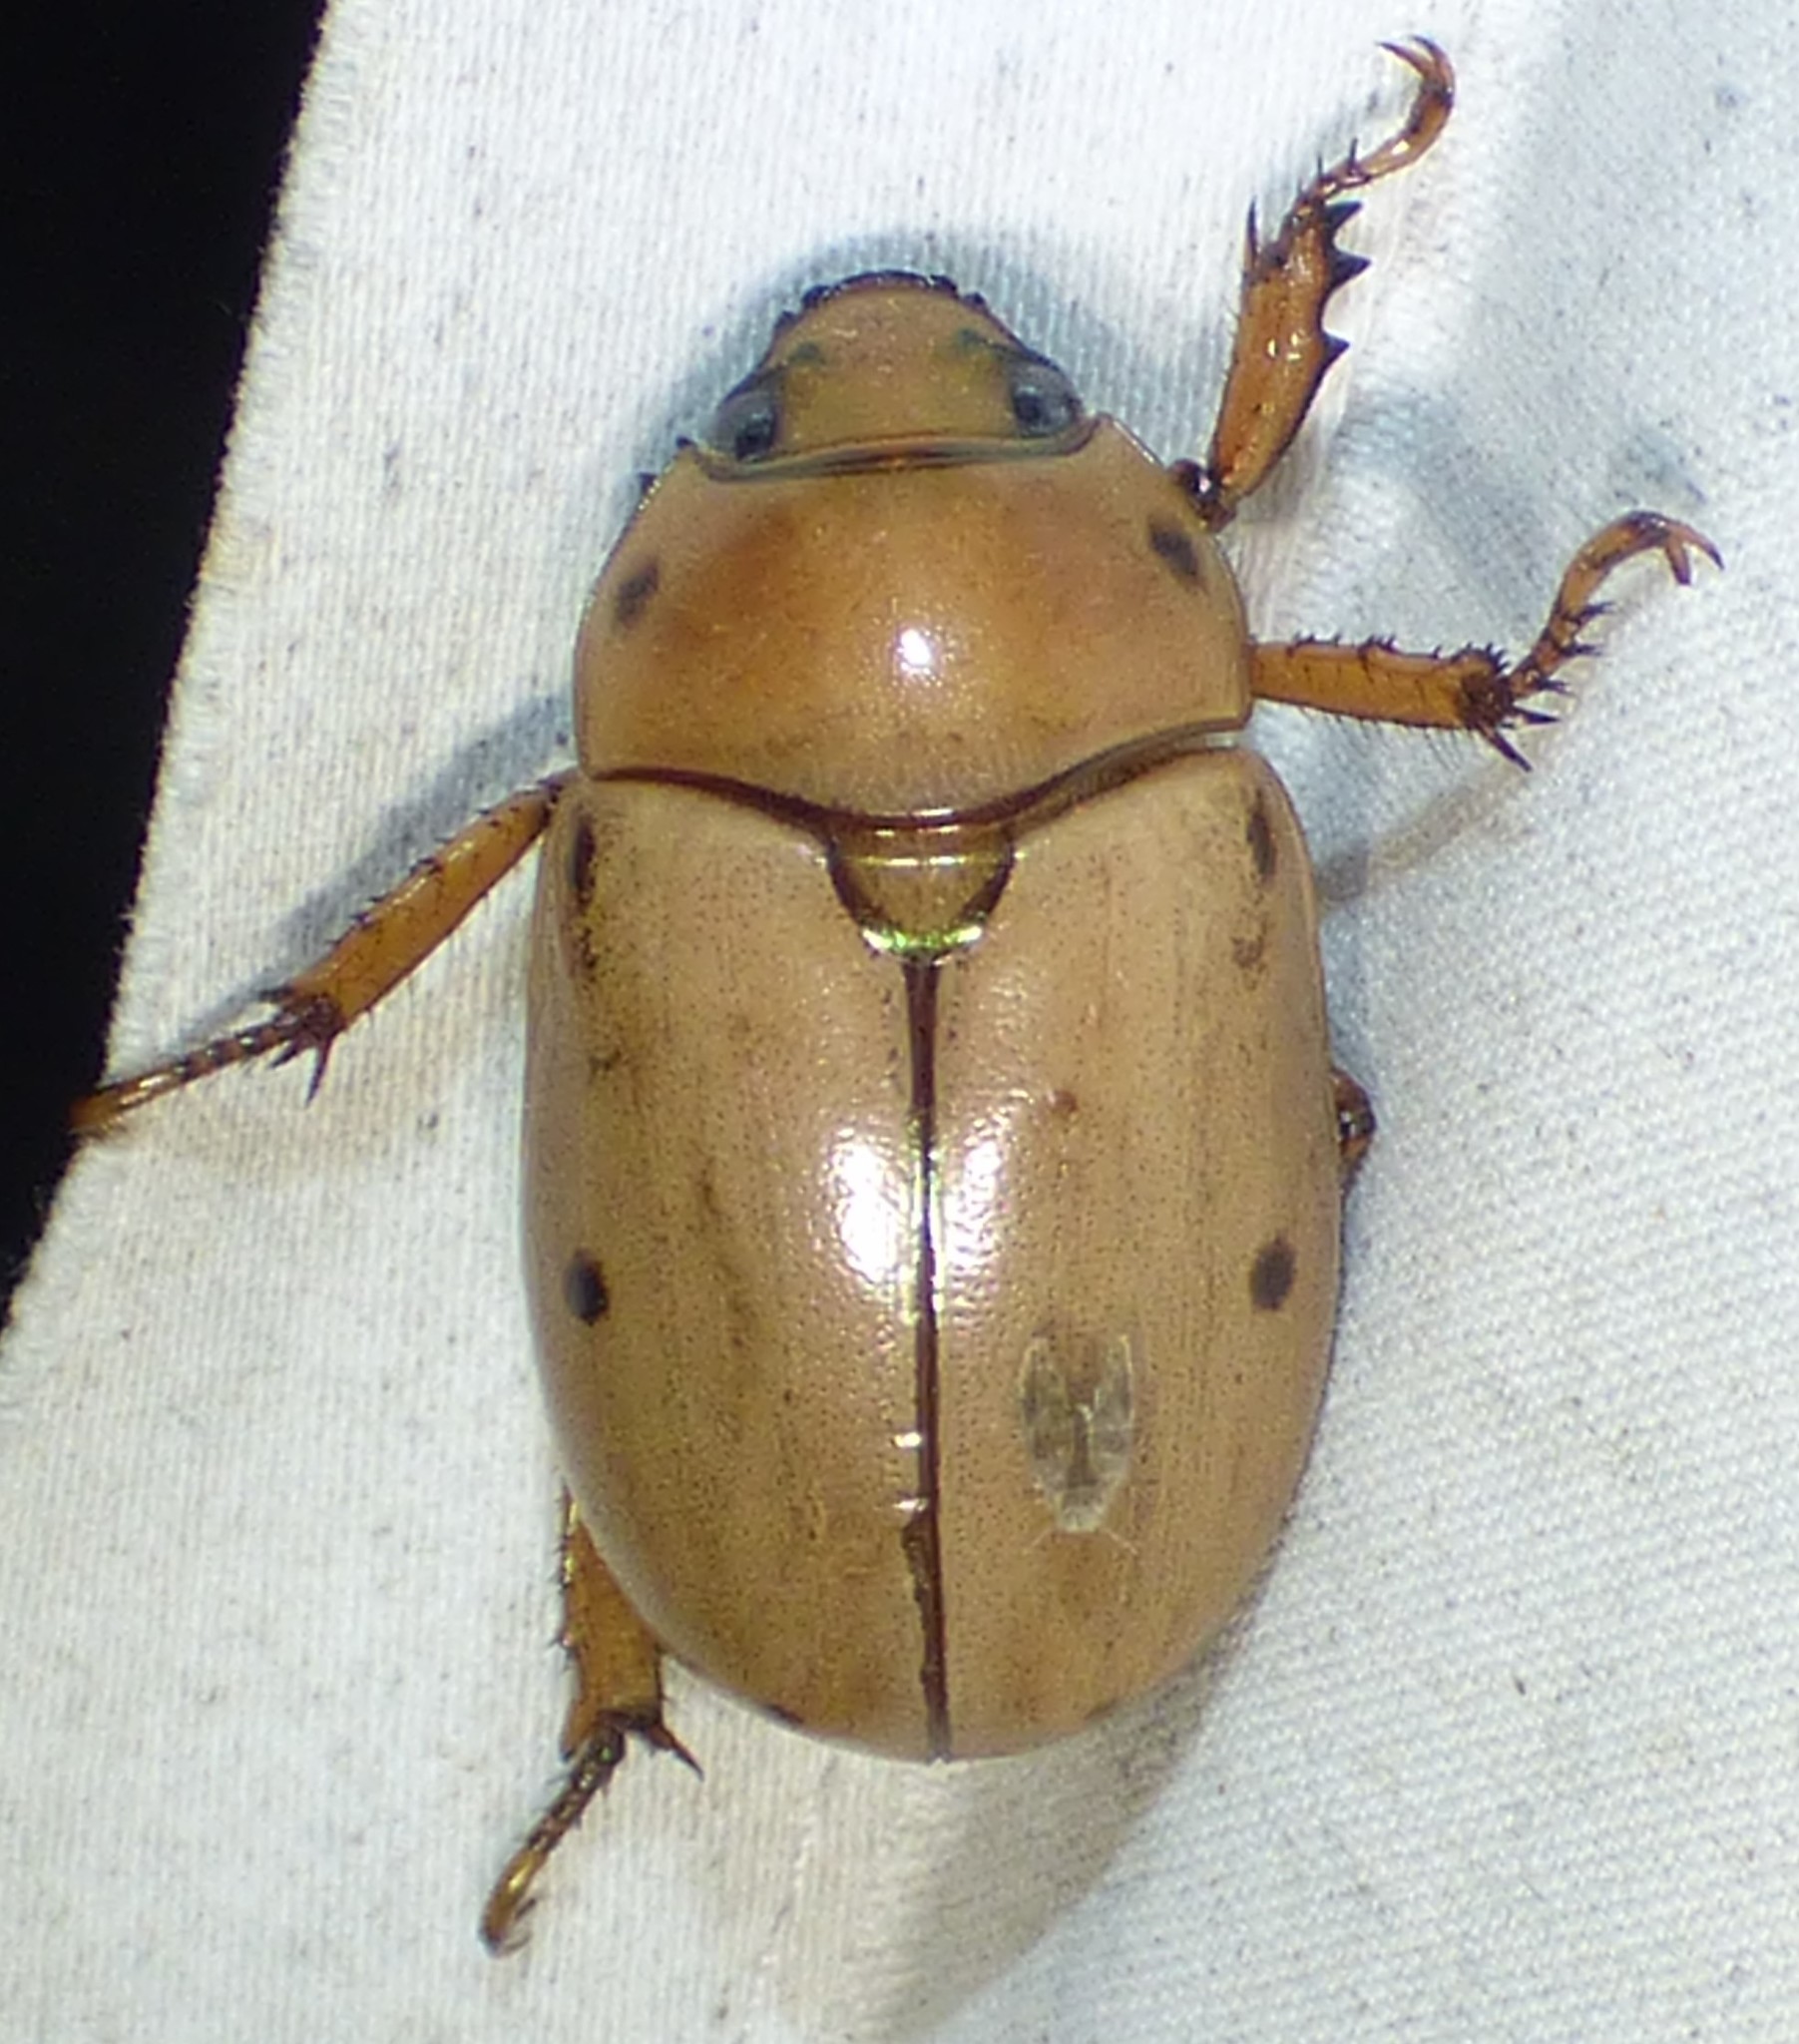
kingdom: Animalia
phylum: Arthropoda
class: Insecta
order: Coleoptera
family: Scarabaeidae
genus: Pelidnota
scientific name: Pelidnota punctata
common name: Grapevine beetle
